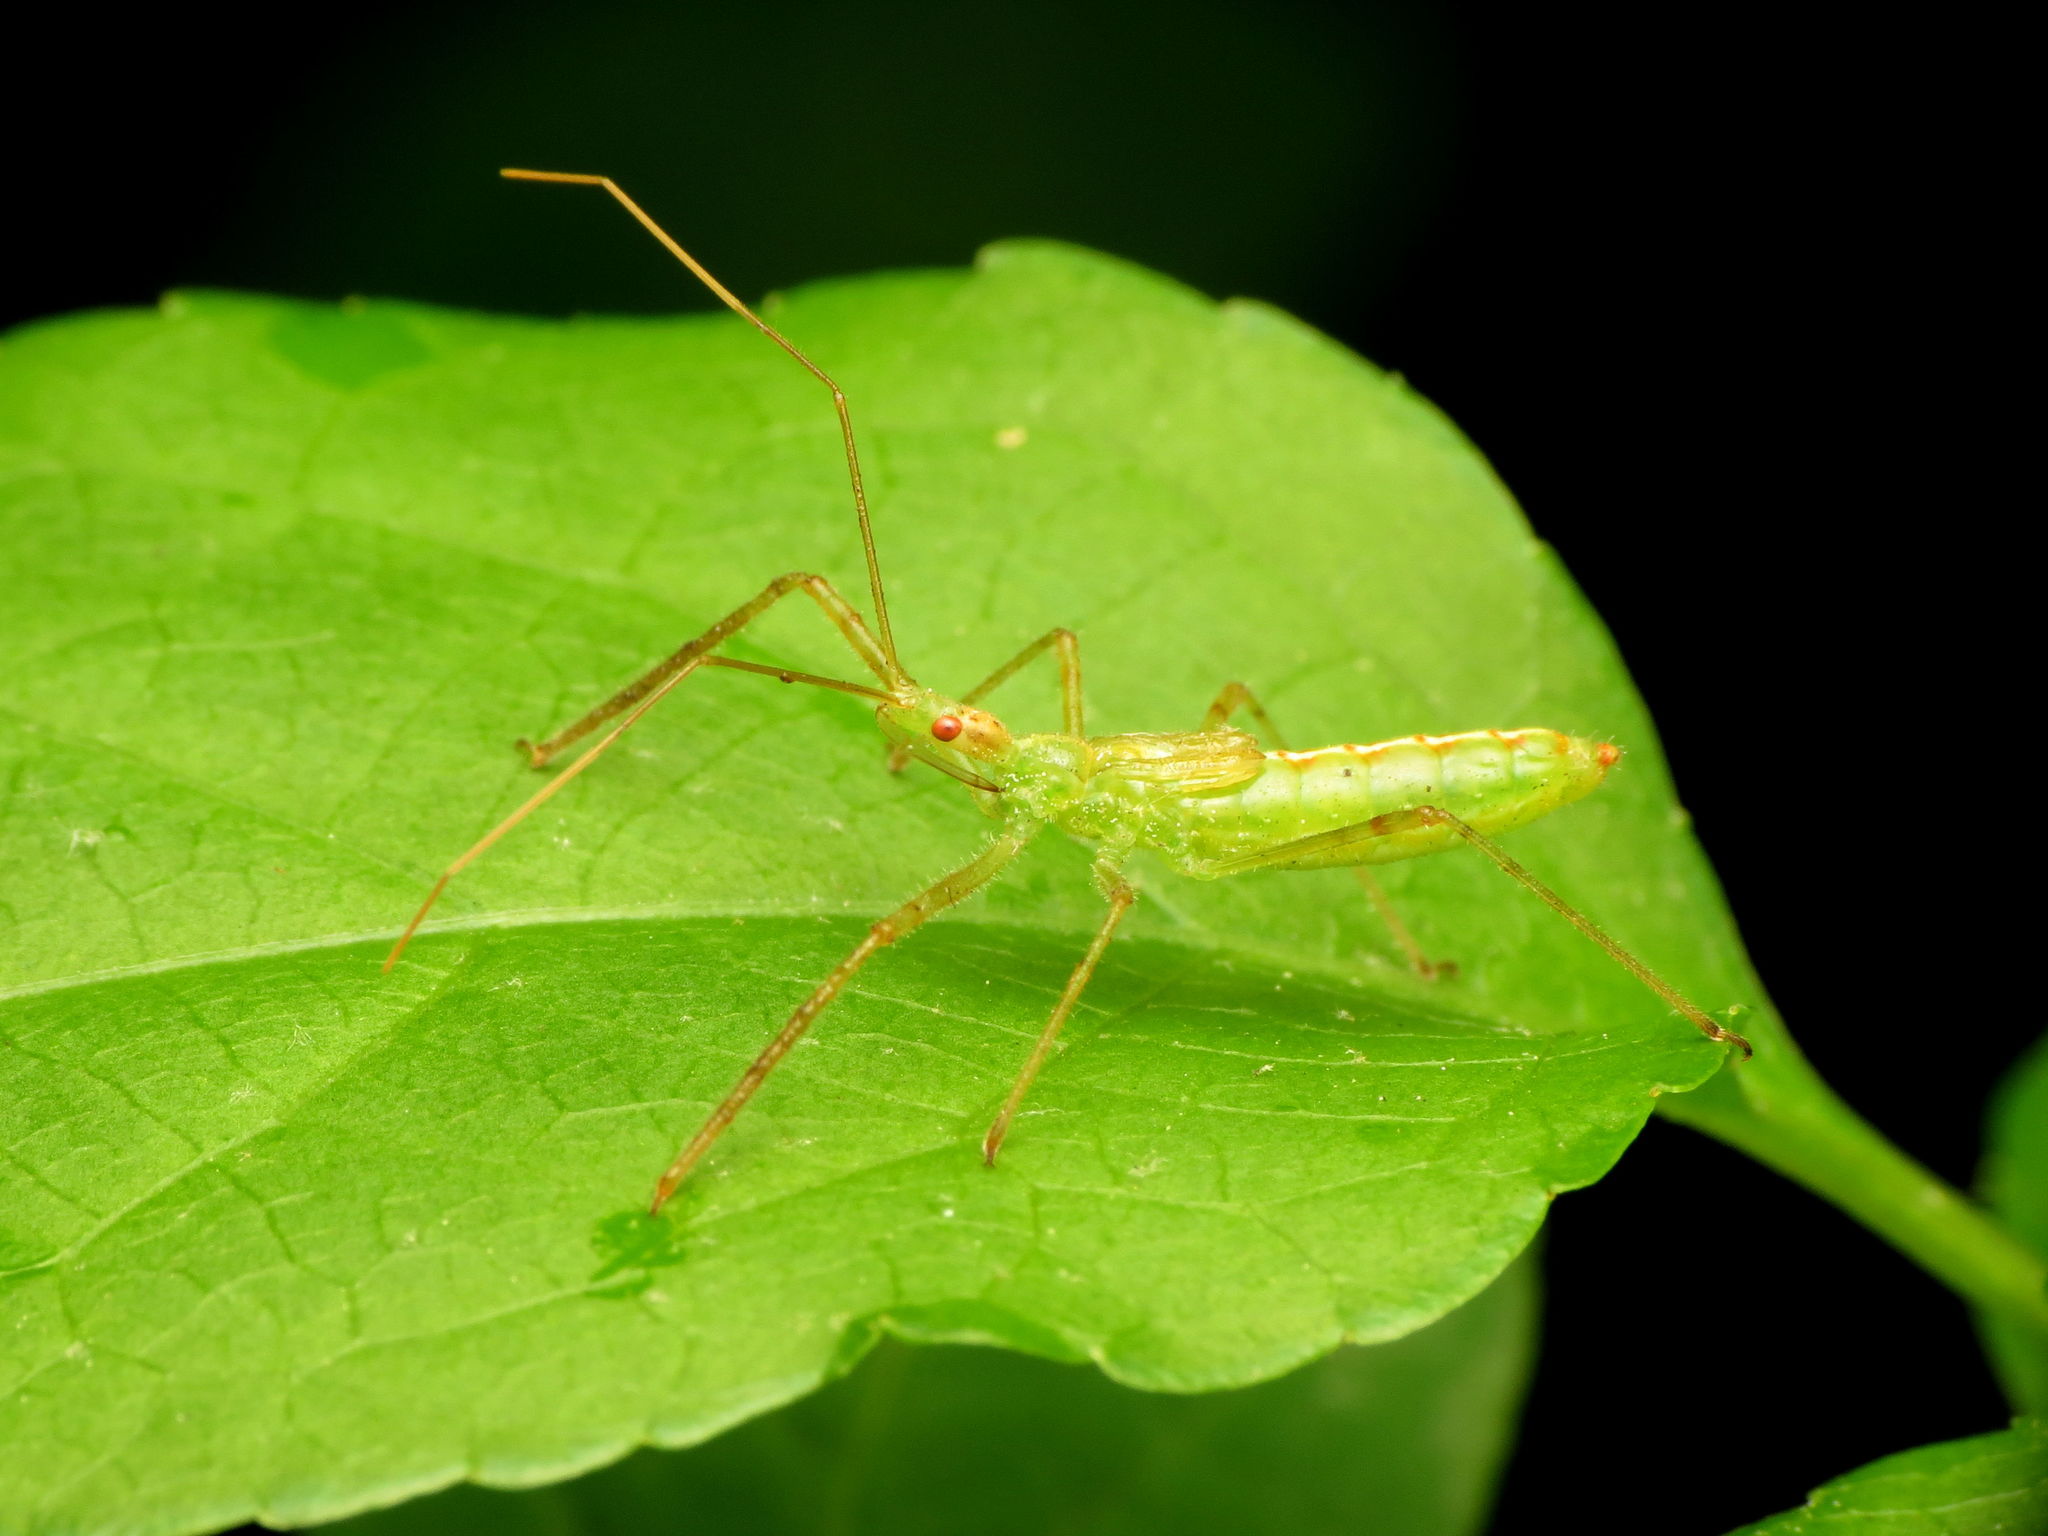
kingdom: Animalia
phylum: Arthropoda
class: Insecta
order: Hemiptera
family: Reduviidae
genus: Zelus
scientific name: Zelus luridus
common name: Pale green assassin bug
